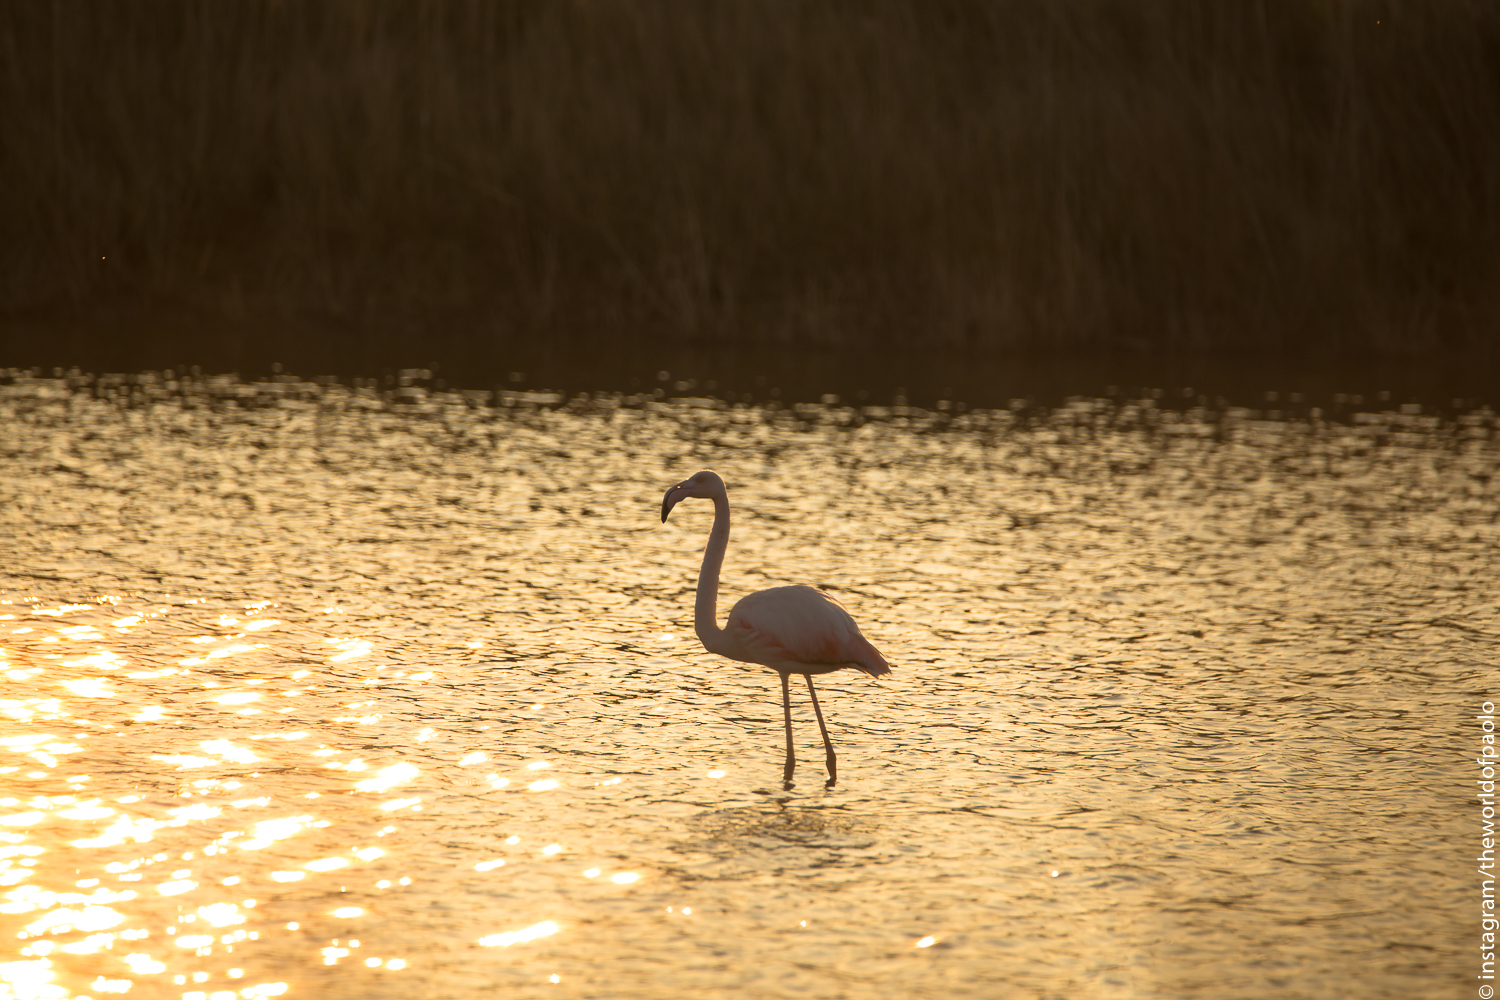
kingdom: Animalia
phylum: Chordata
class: Aves
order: Phoenicopteriformes
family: Phoenicopteridae
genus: Phoenicopterus
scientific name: Phoenicopterus roseus
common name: Greater flamingo
